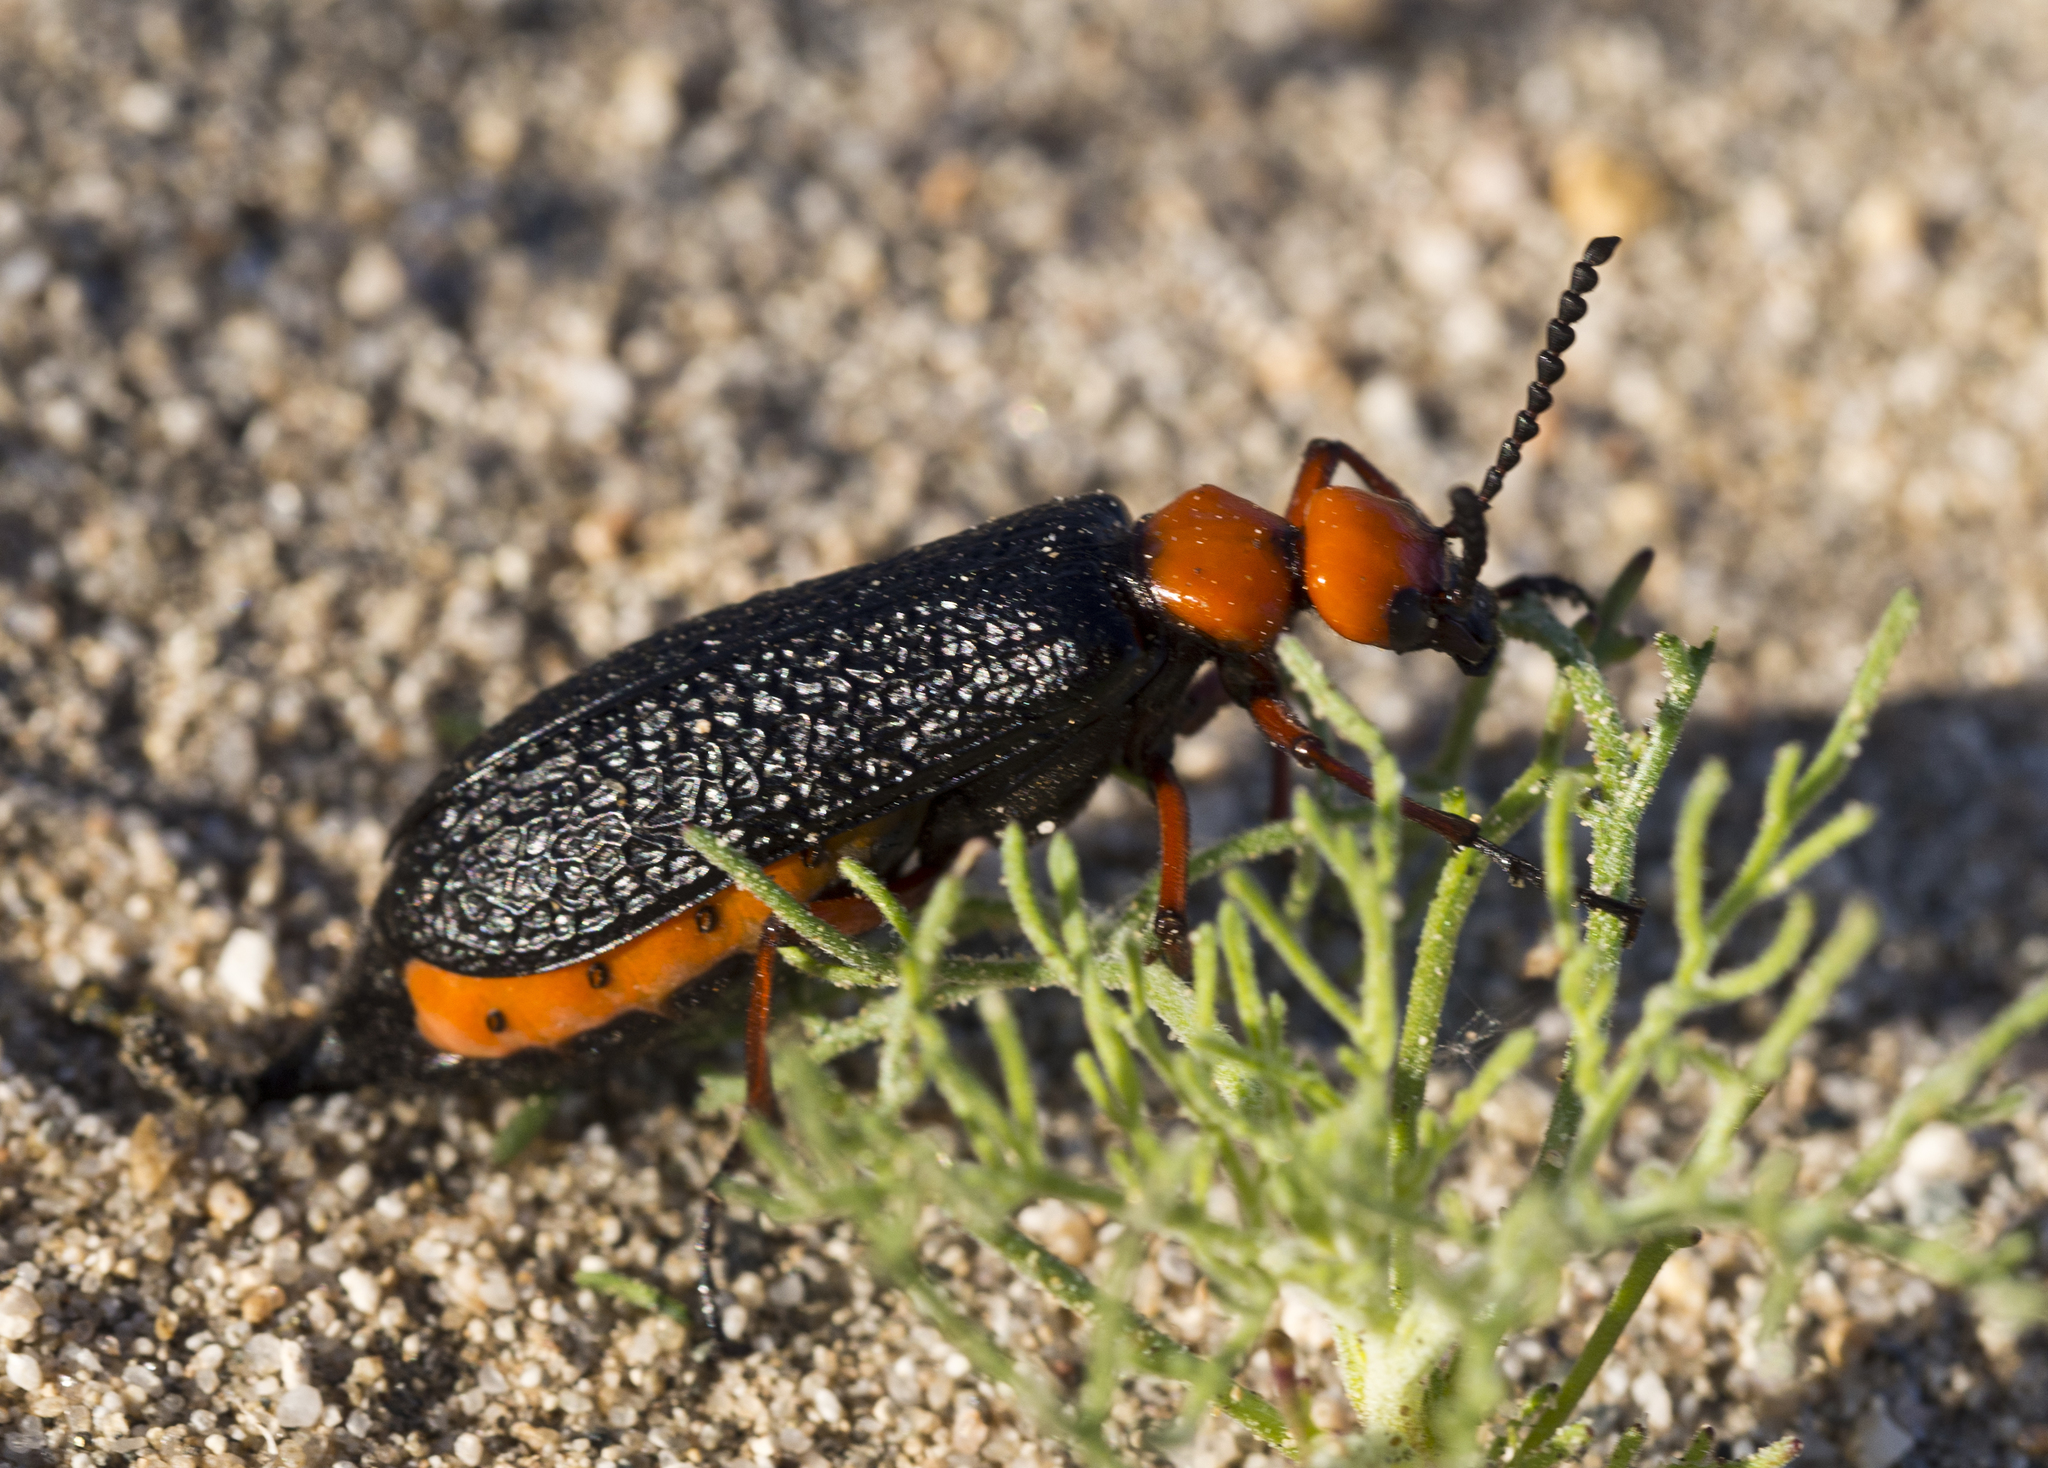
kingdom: Animalia
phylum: Arthropoda
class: Insecta
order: Coleoptera
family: Meloidae
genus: Lytta
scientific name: Lytta magister
